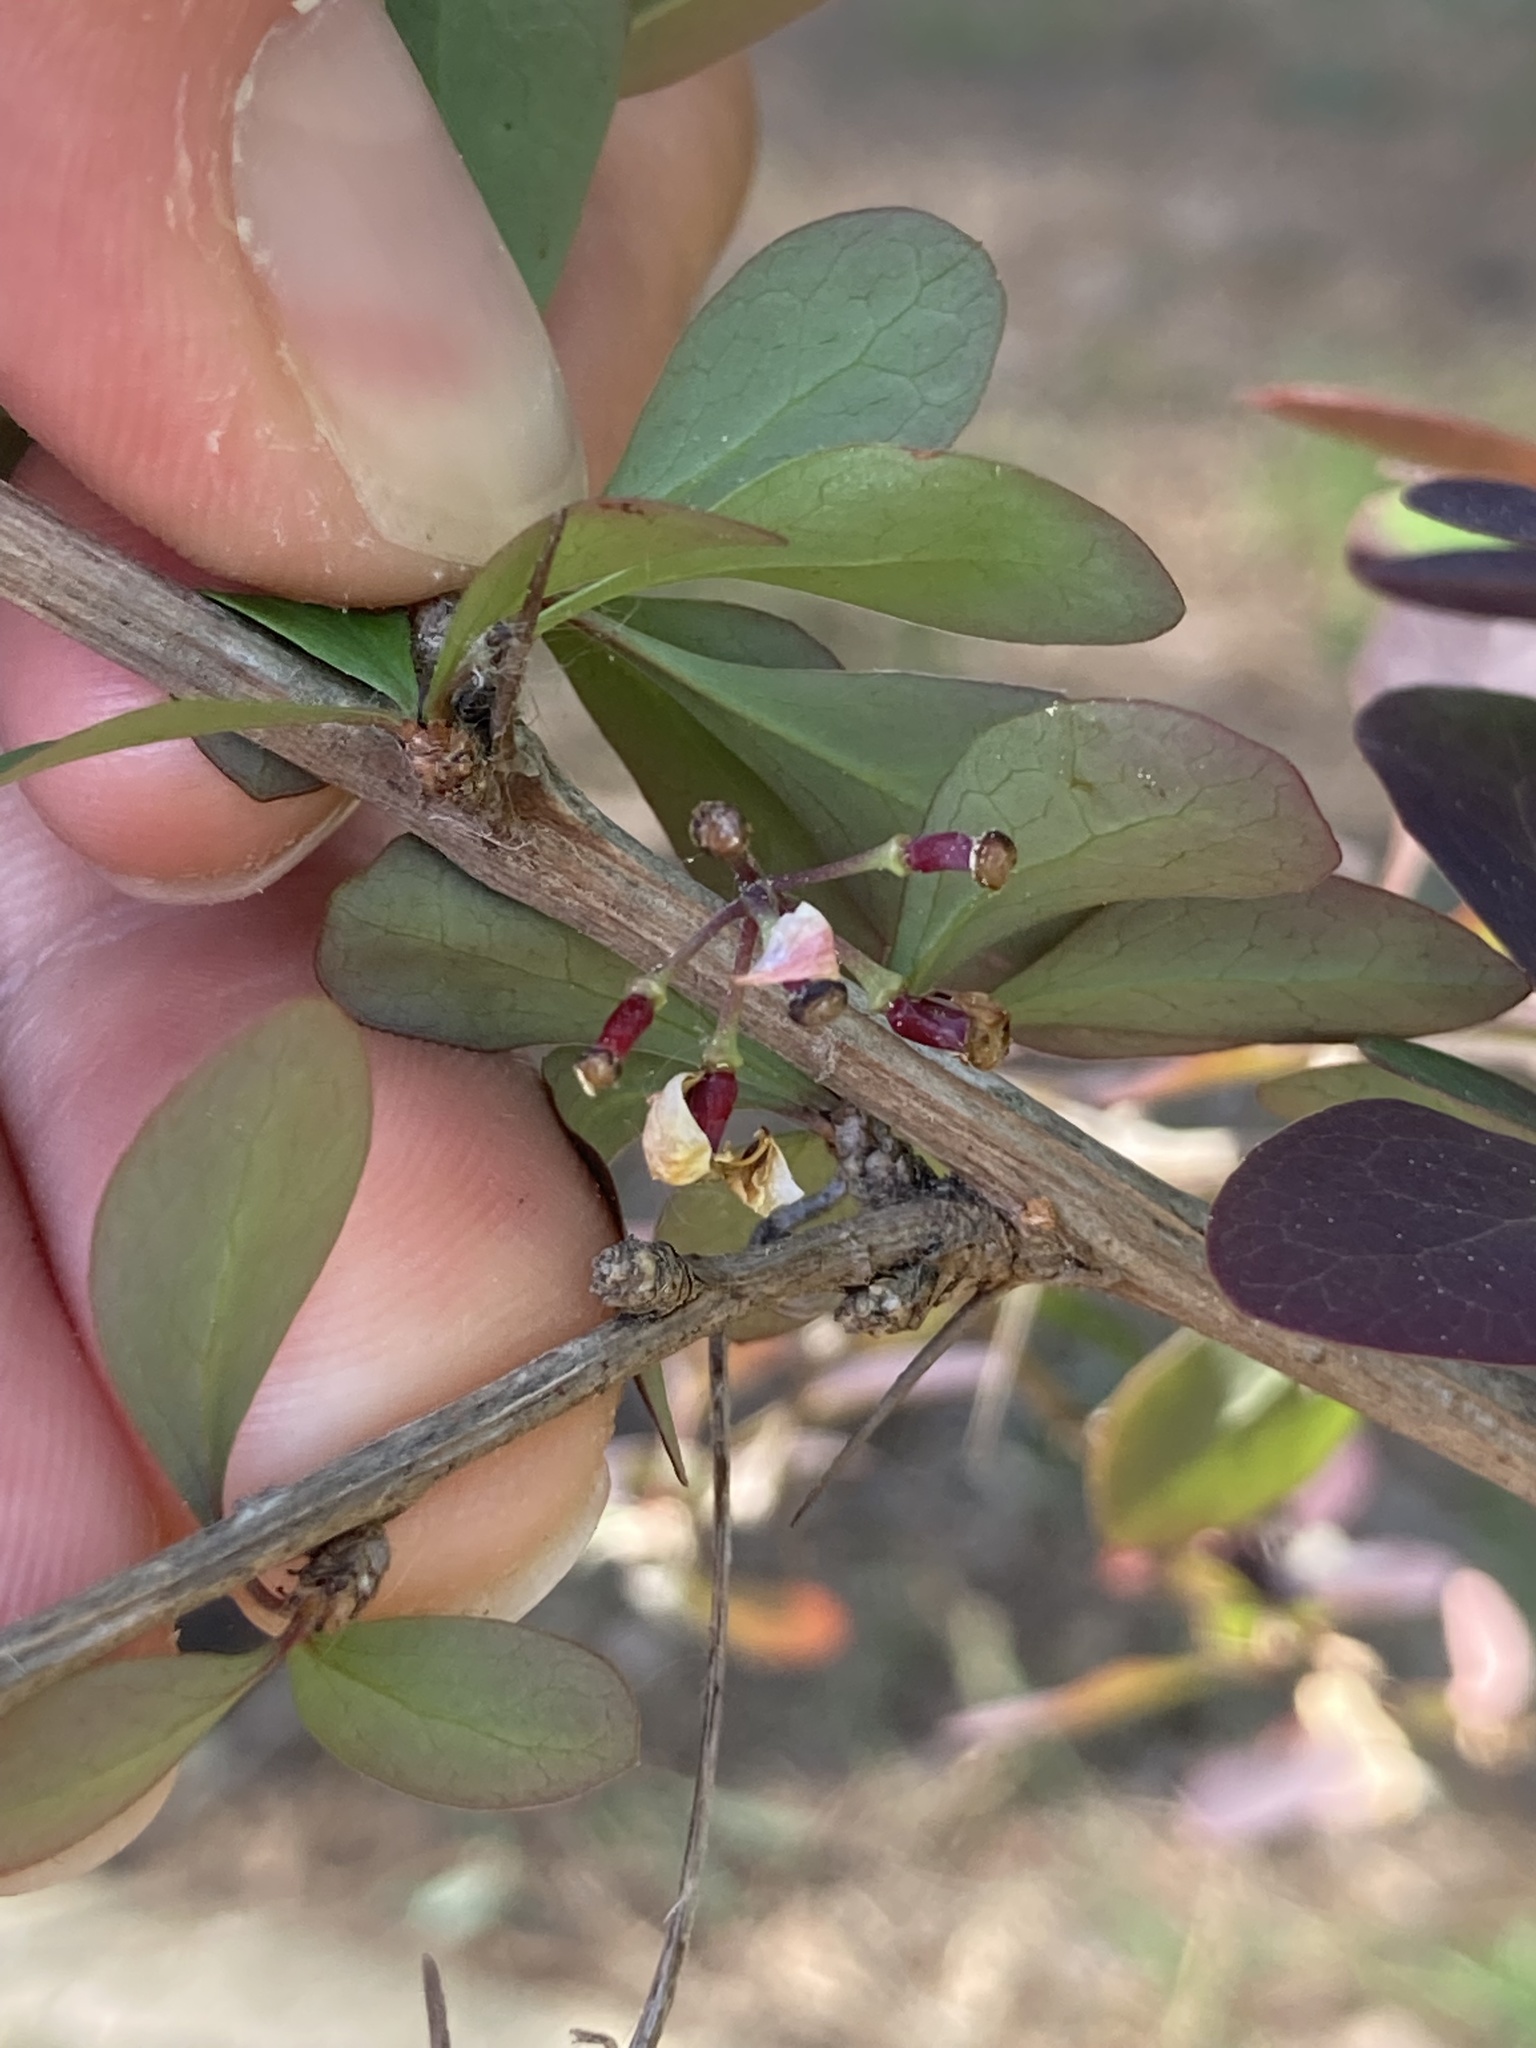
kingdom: Plantae
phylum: Tracheophyta
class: Magnoliopsida
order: Ranunculales
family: Berberidaceae
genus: Berberis
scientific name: Berberis thunbergii
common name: Japanese barberry
